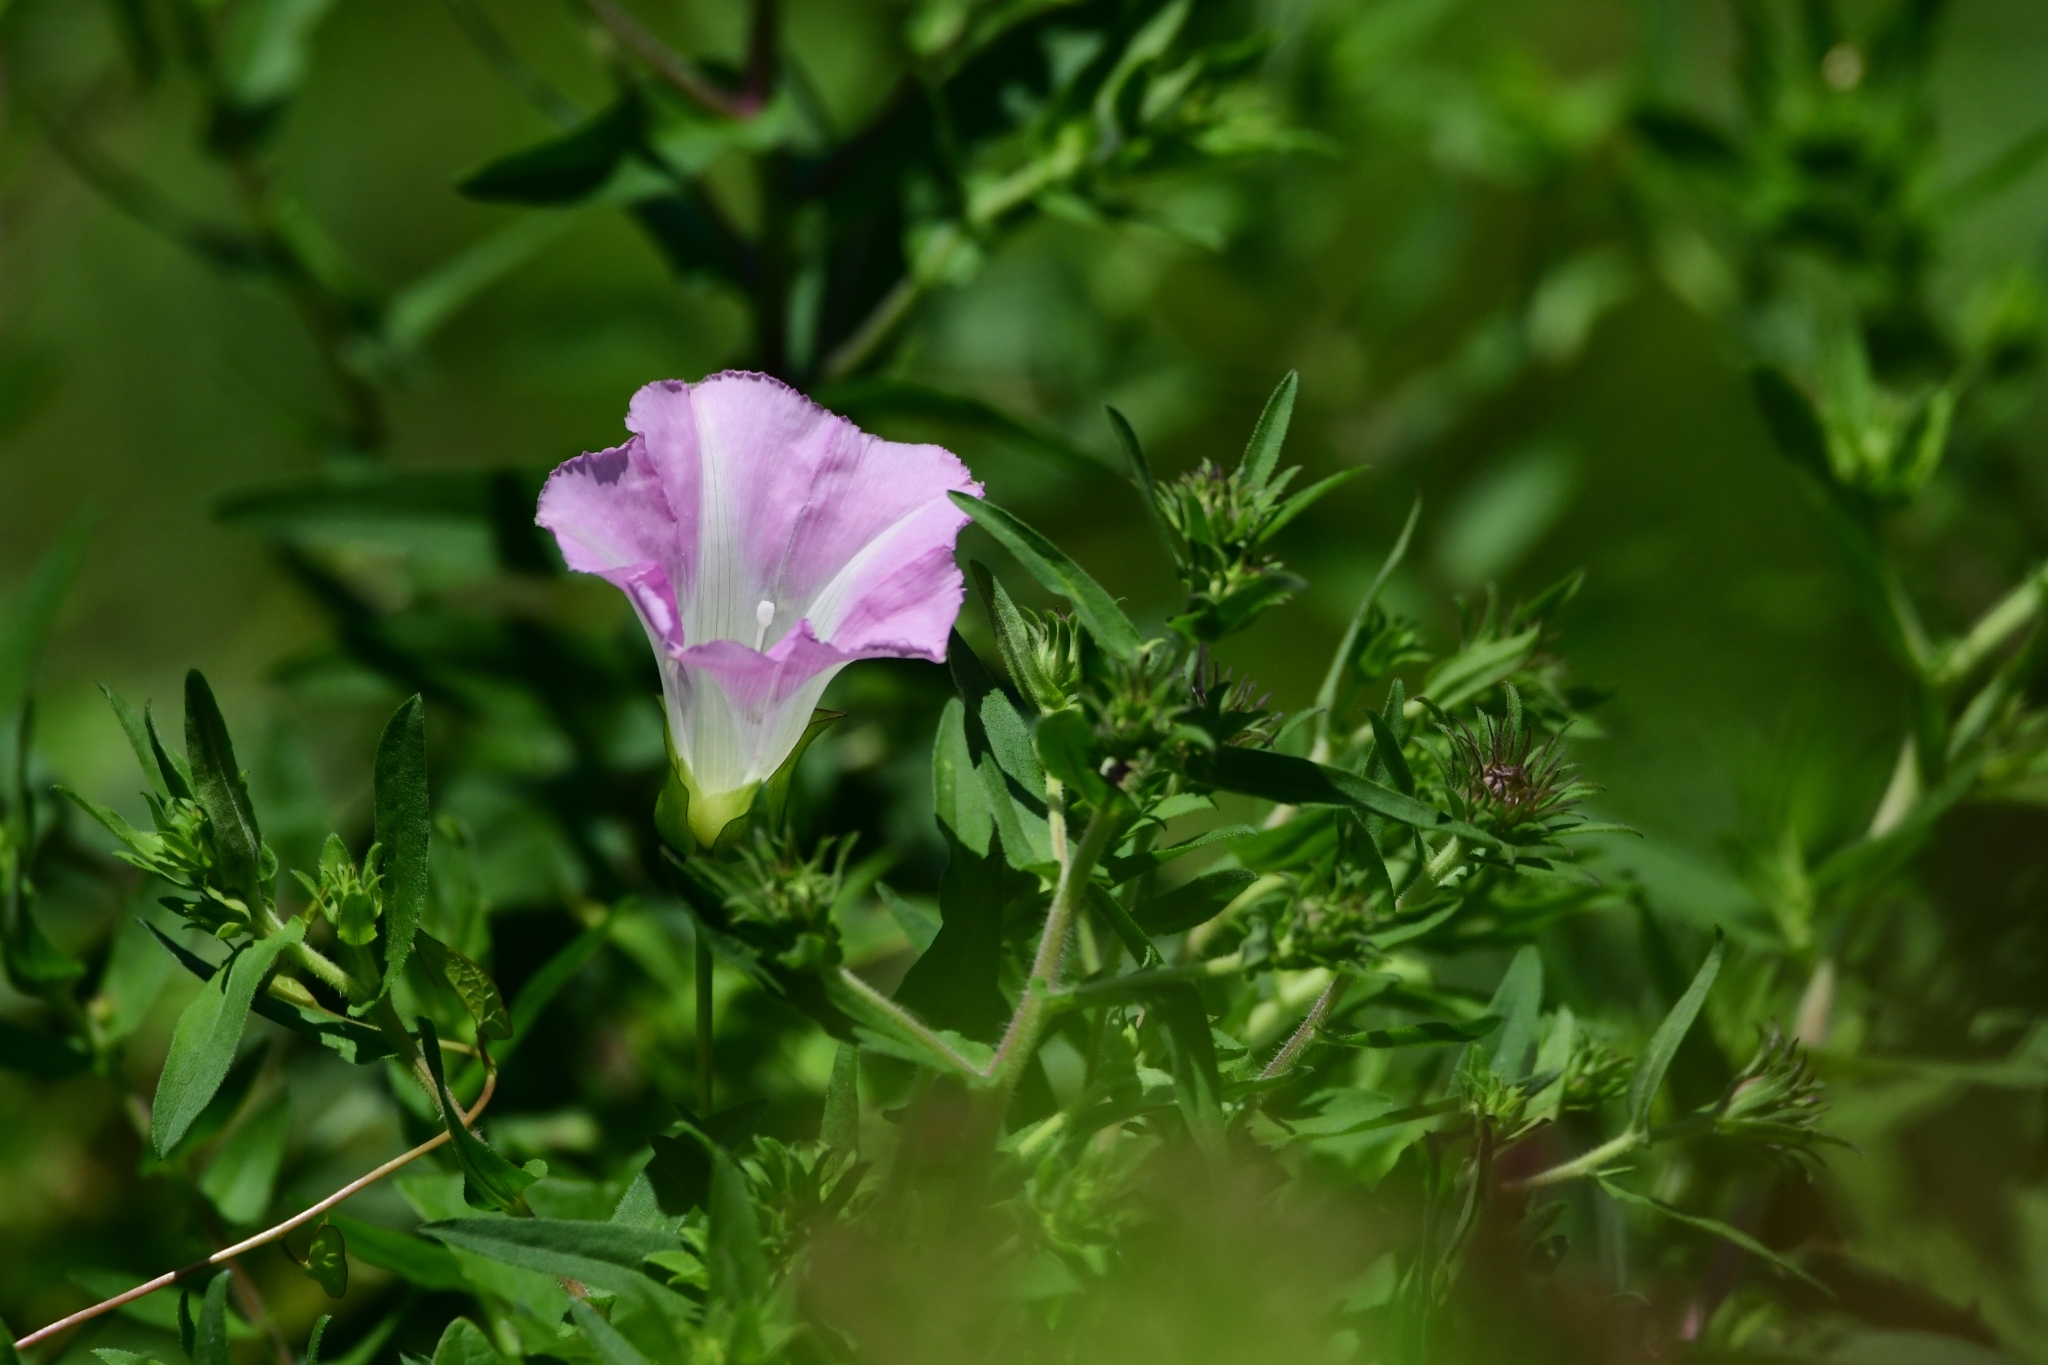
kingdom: Plantae
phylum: Tracheophyta
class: Magnoliopsida
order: Solanales
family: Convolvulaceae
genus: Calystegia
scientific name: Calystegia sepium
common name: Hedge bindweed
